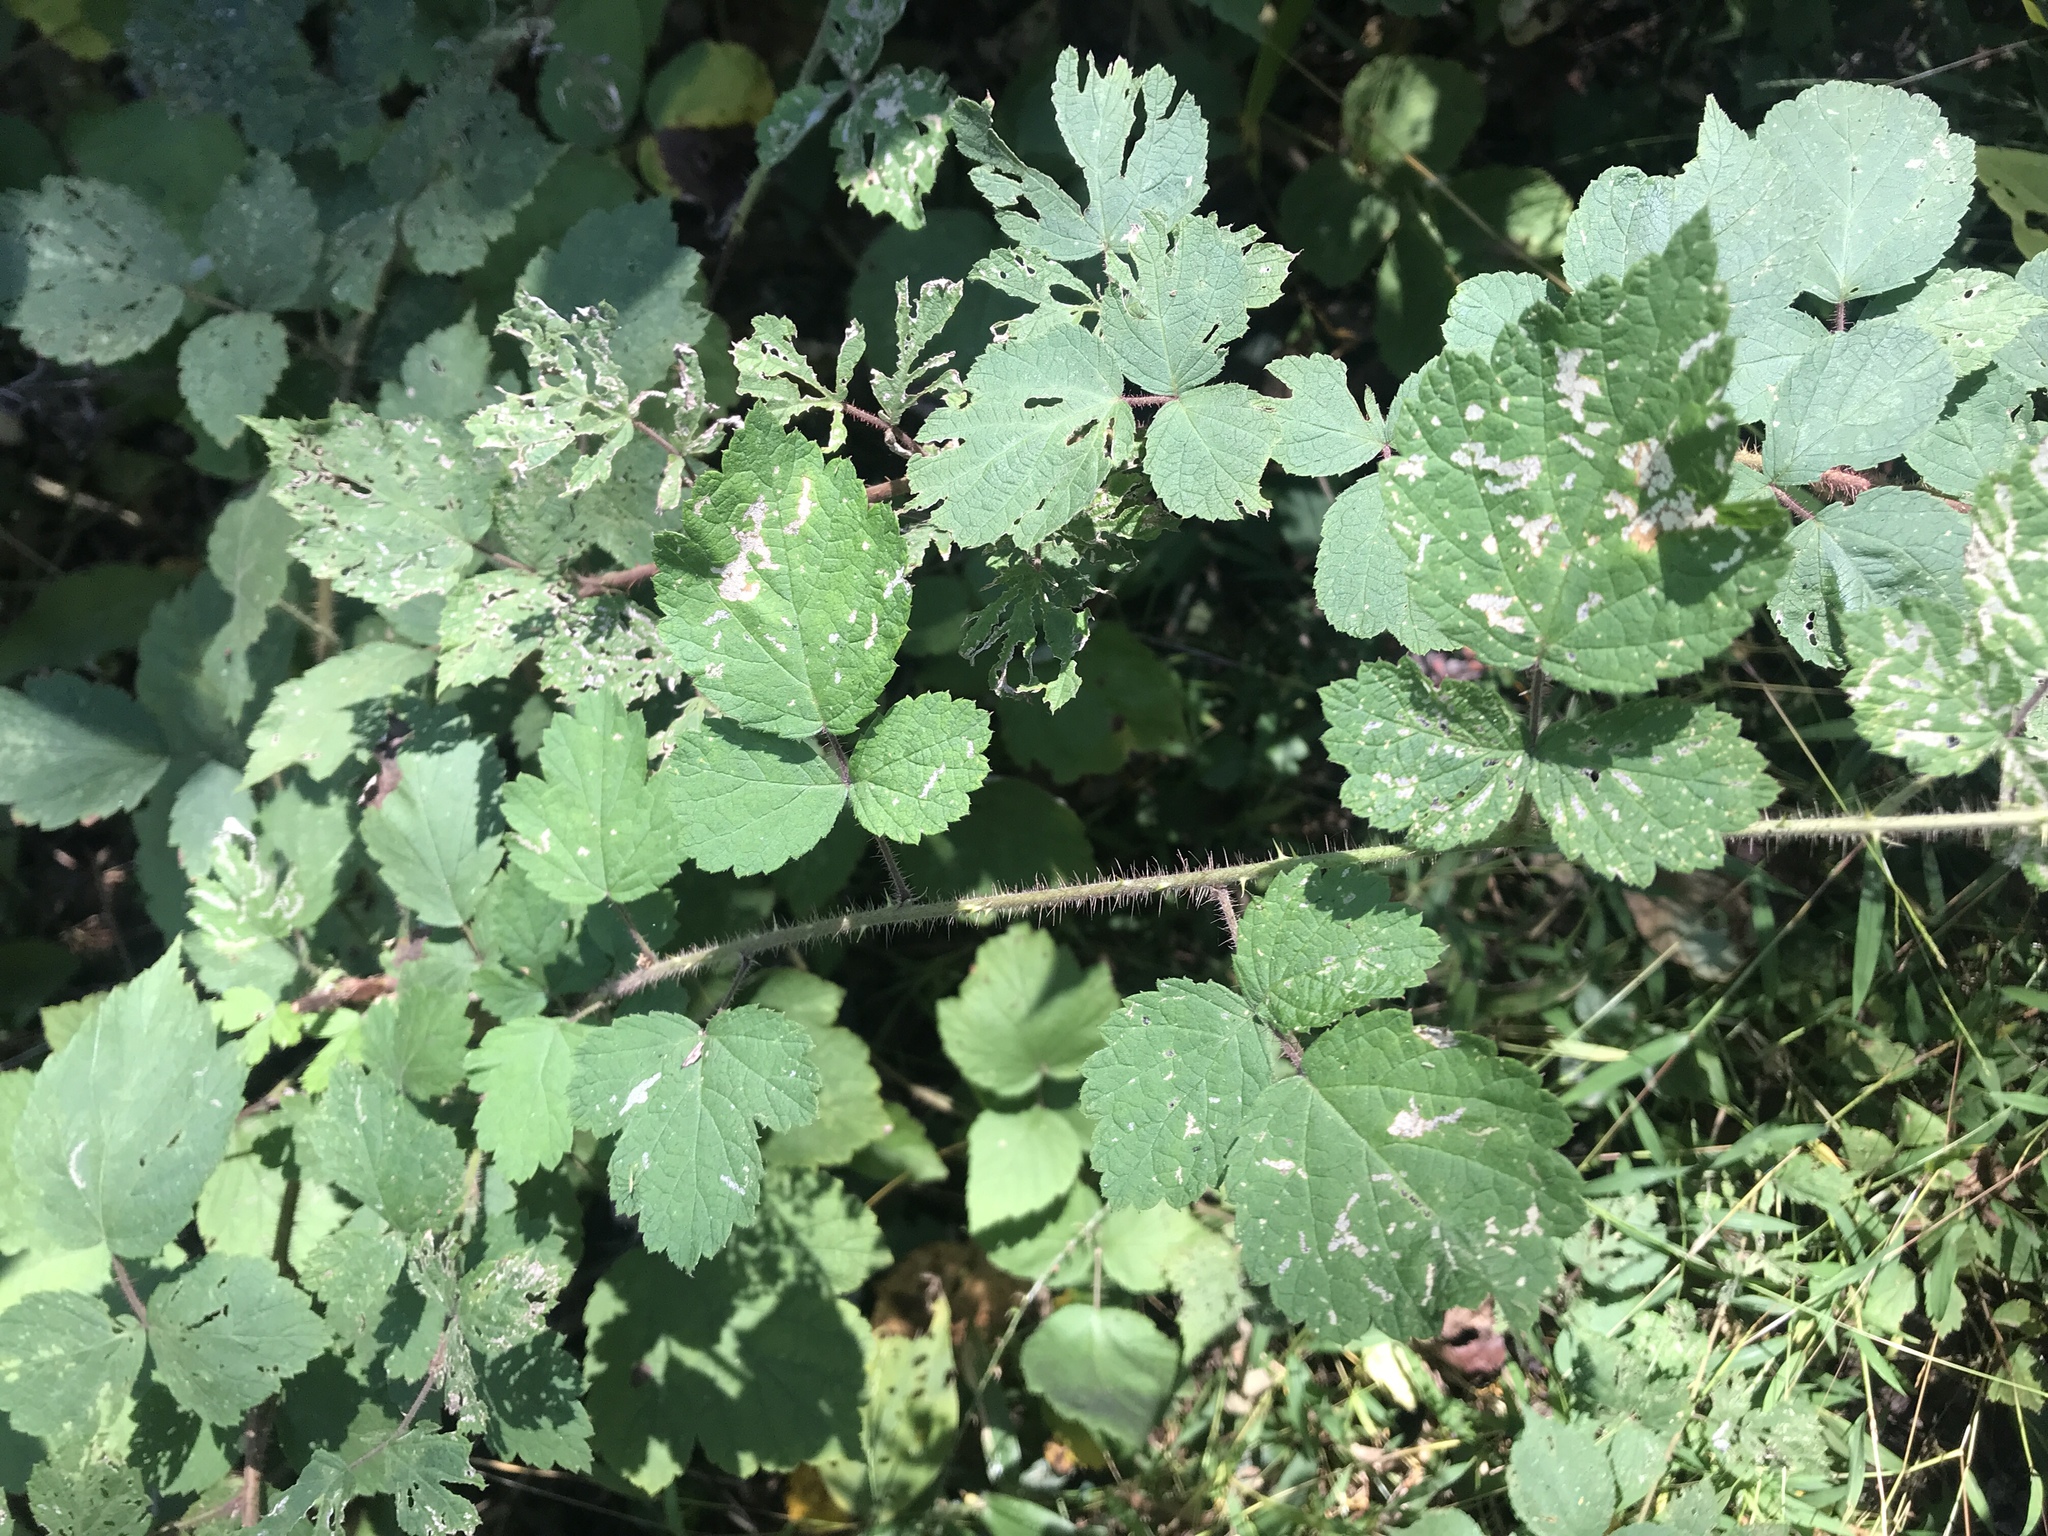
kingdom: Plantae
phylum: Tracheophyta
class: Magnoliopsida
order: Rosales
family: Rosaceae
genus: Rubus
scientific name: Rubus phoenicolasius
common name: Japanese wineberry
